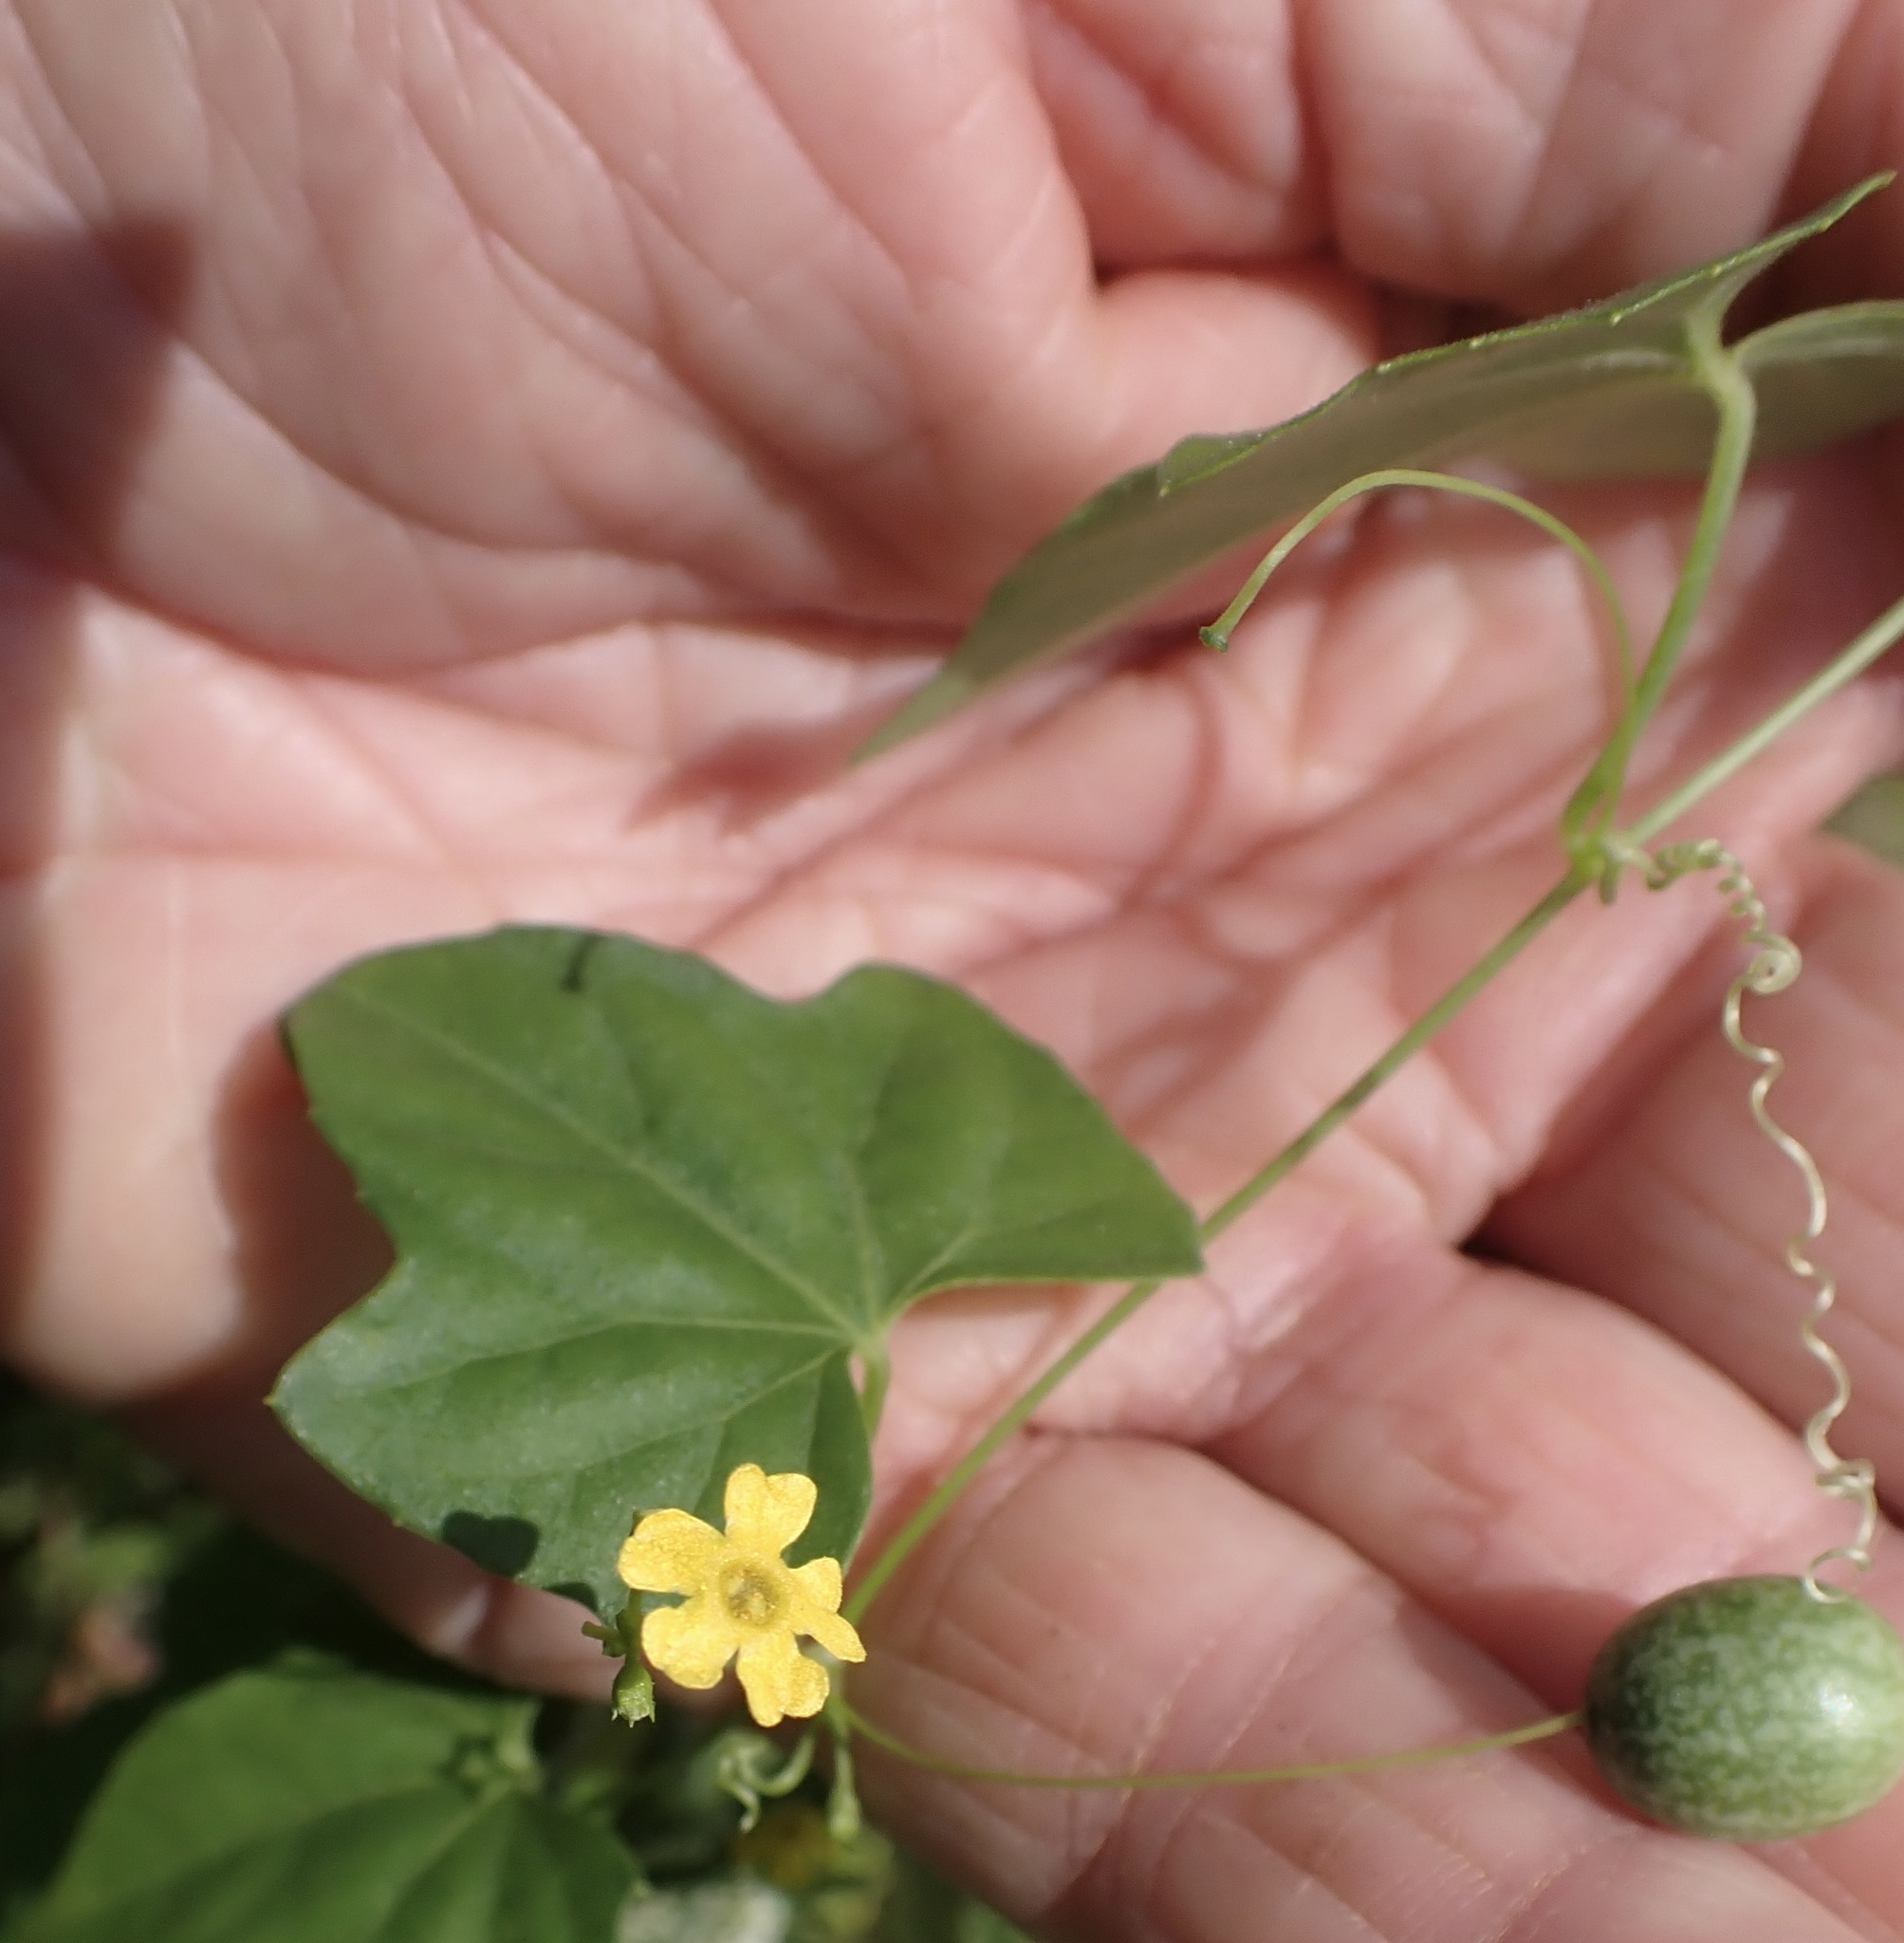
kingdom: Plantae
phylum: Tracheophyta
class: Magnoliopsida
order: Cucurbitales
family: Cucurbitaceae
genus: Melothria
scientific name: Melothria pendula
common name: Creeping-cucumber
